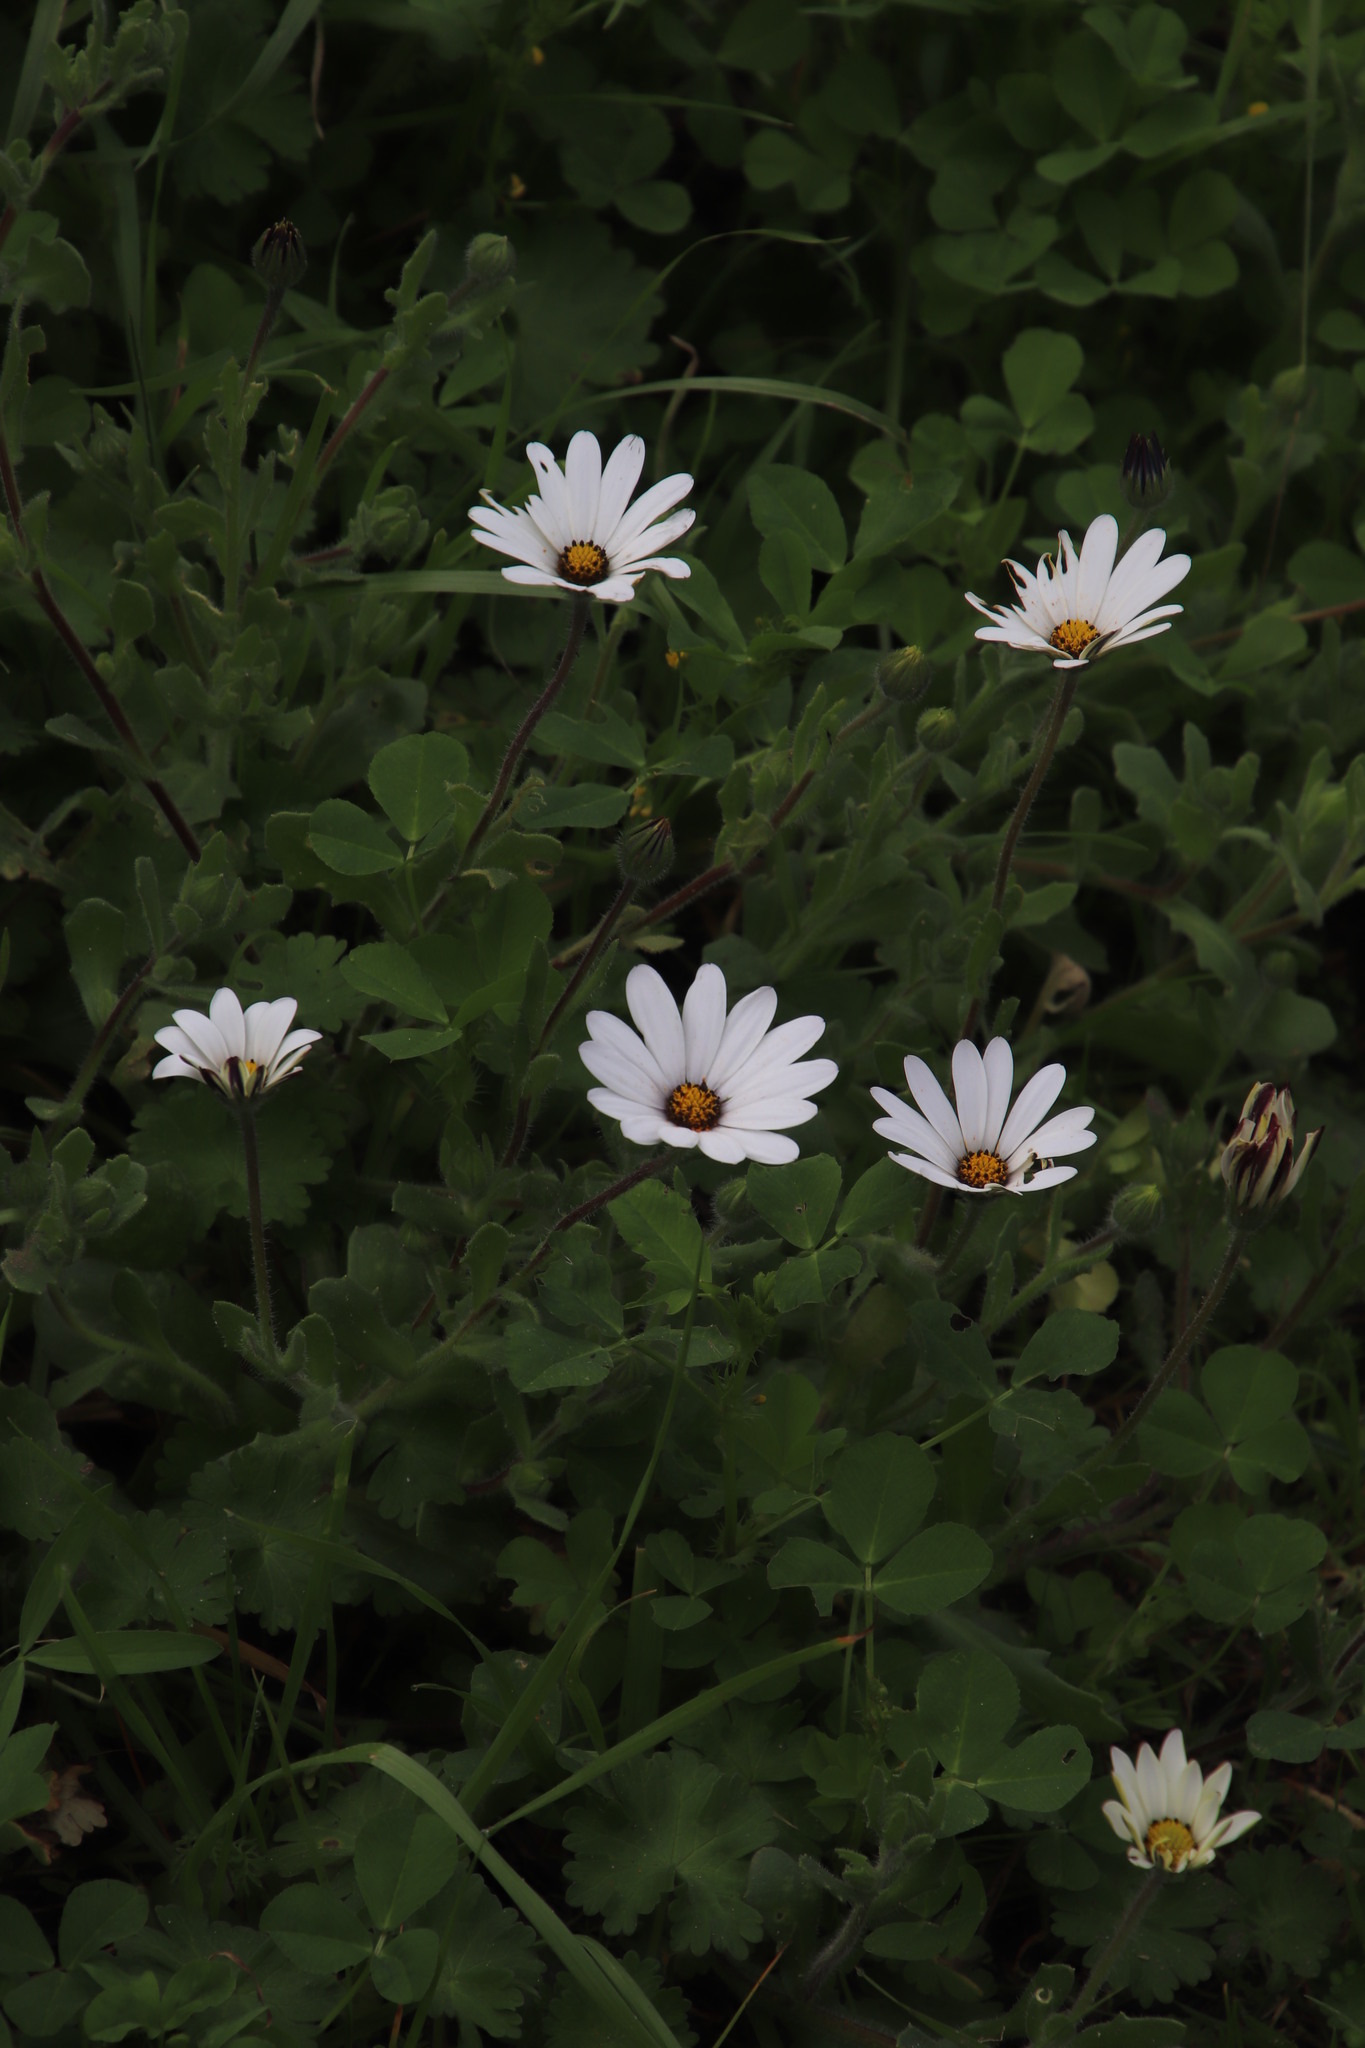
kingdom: Plantae
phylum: Tracheophyta
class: Magnoliopsida
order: Asterales
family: Asteraceae
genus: Dimorphotheca
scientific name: Dimorphotheca pluvialis
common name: Weather prophet
